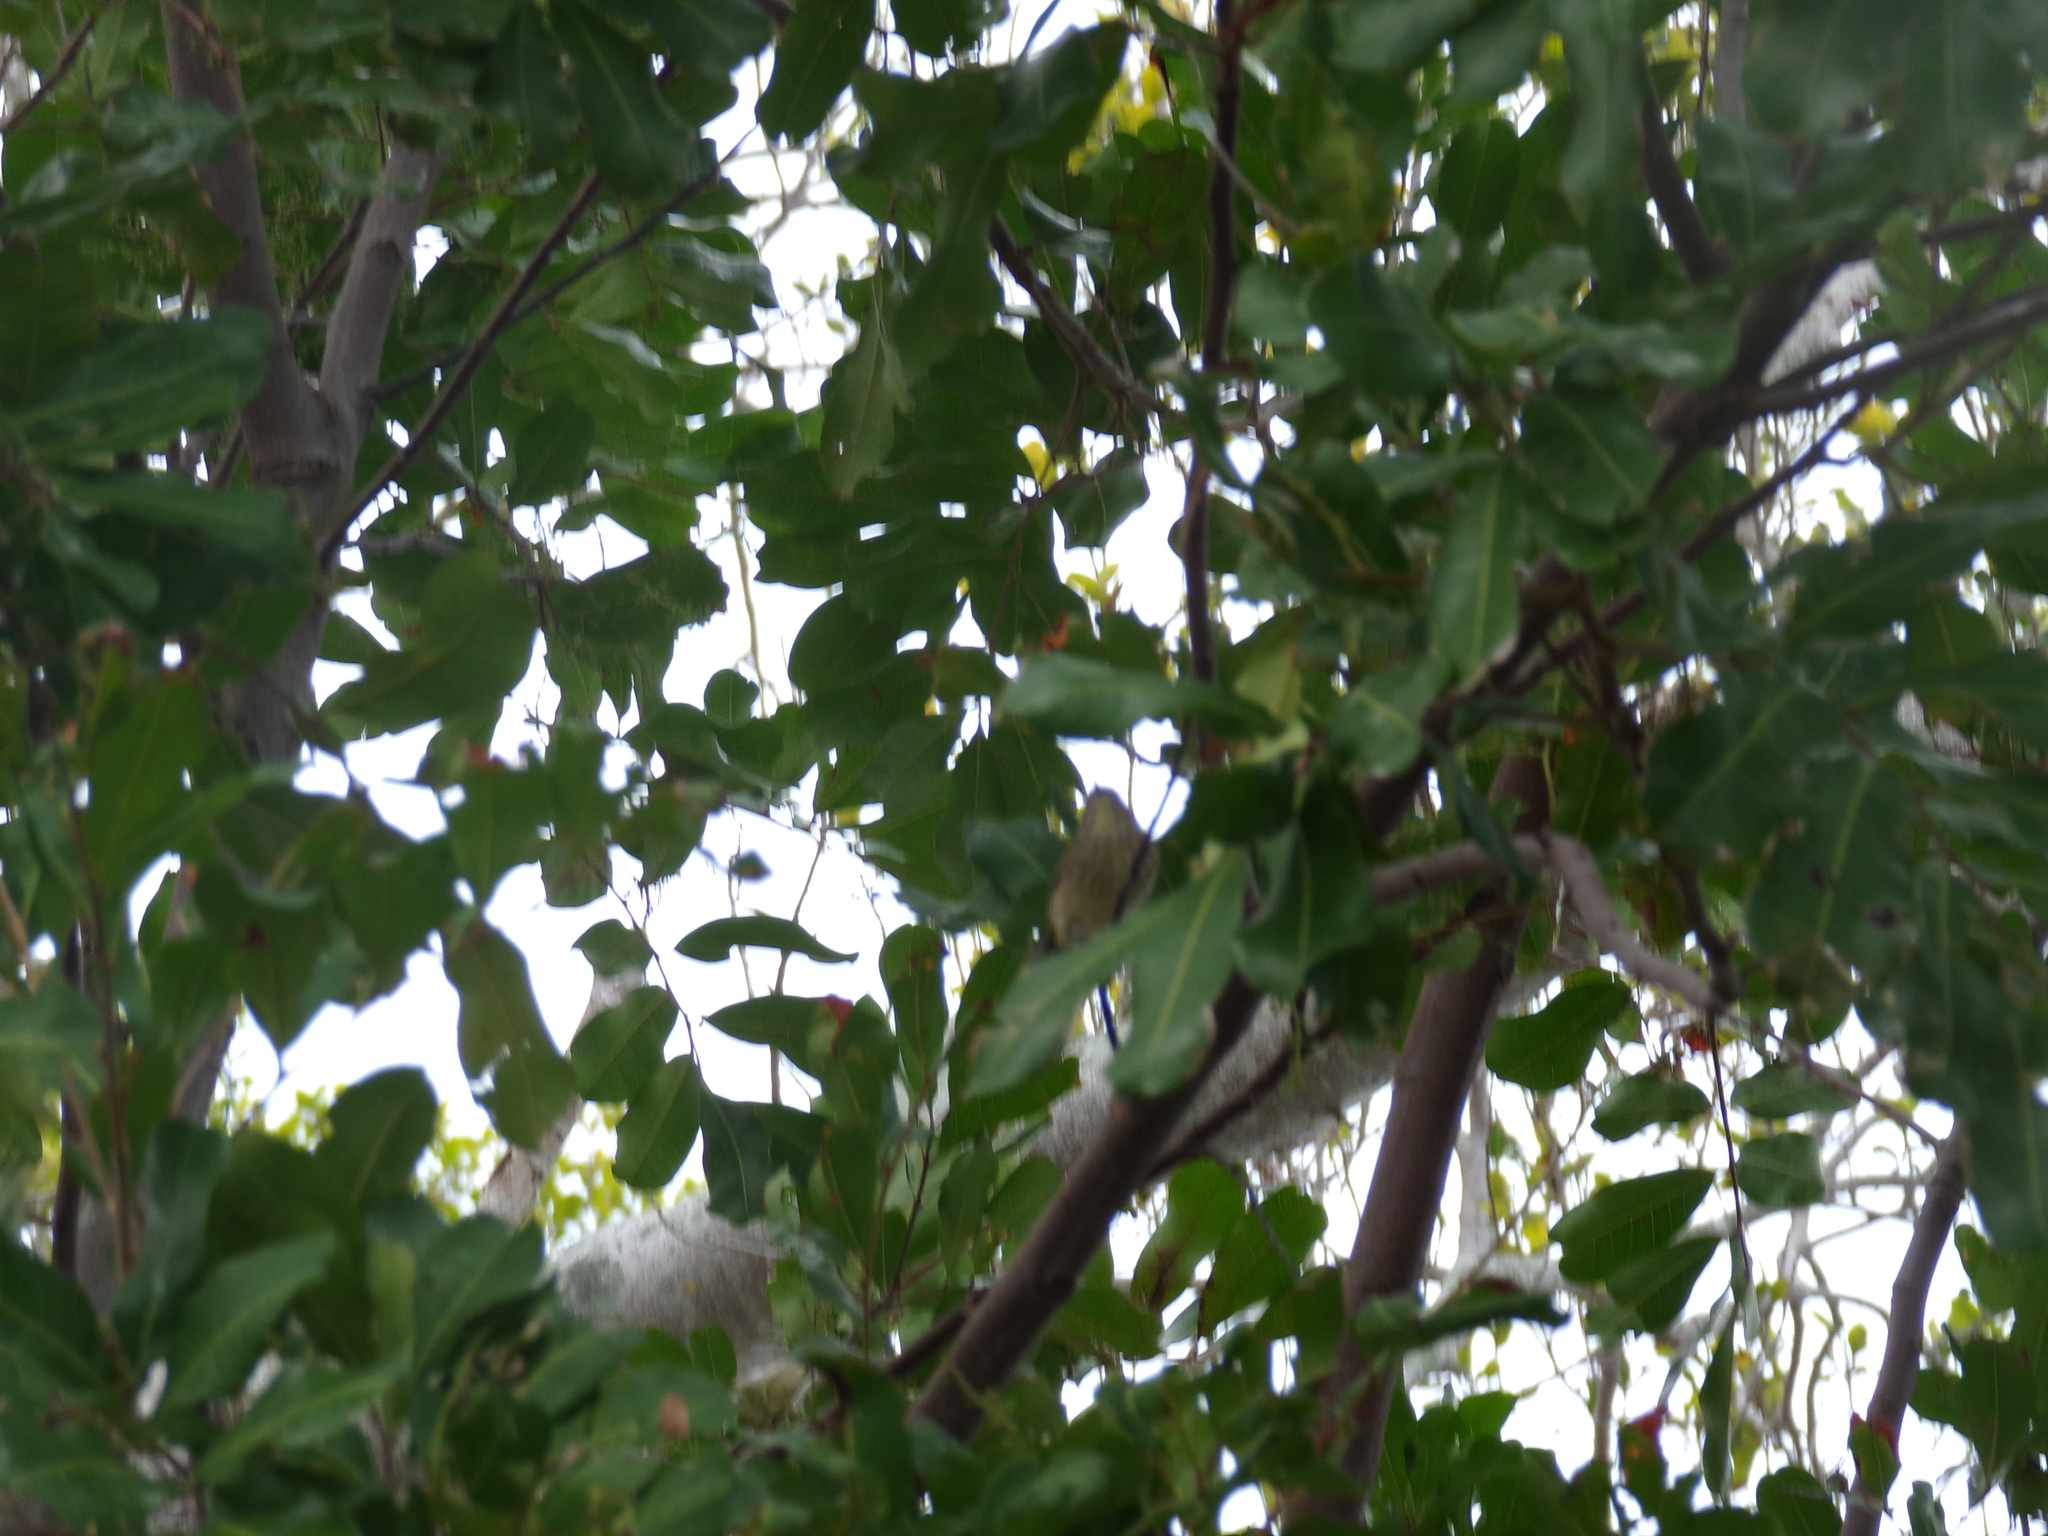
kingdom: Animalia
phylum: Chordata
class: Aves
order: Passeriformes
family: Parulidae
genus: Setophaga
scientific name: Setophaga palmarum
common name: Palm warbler
